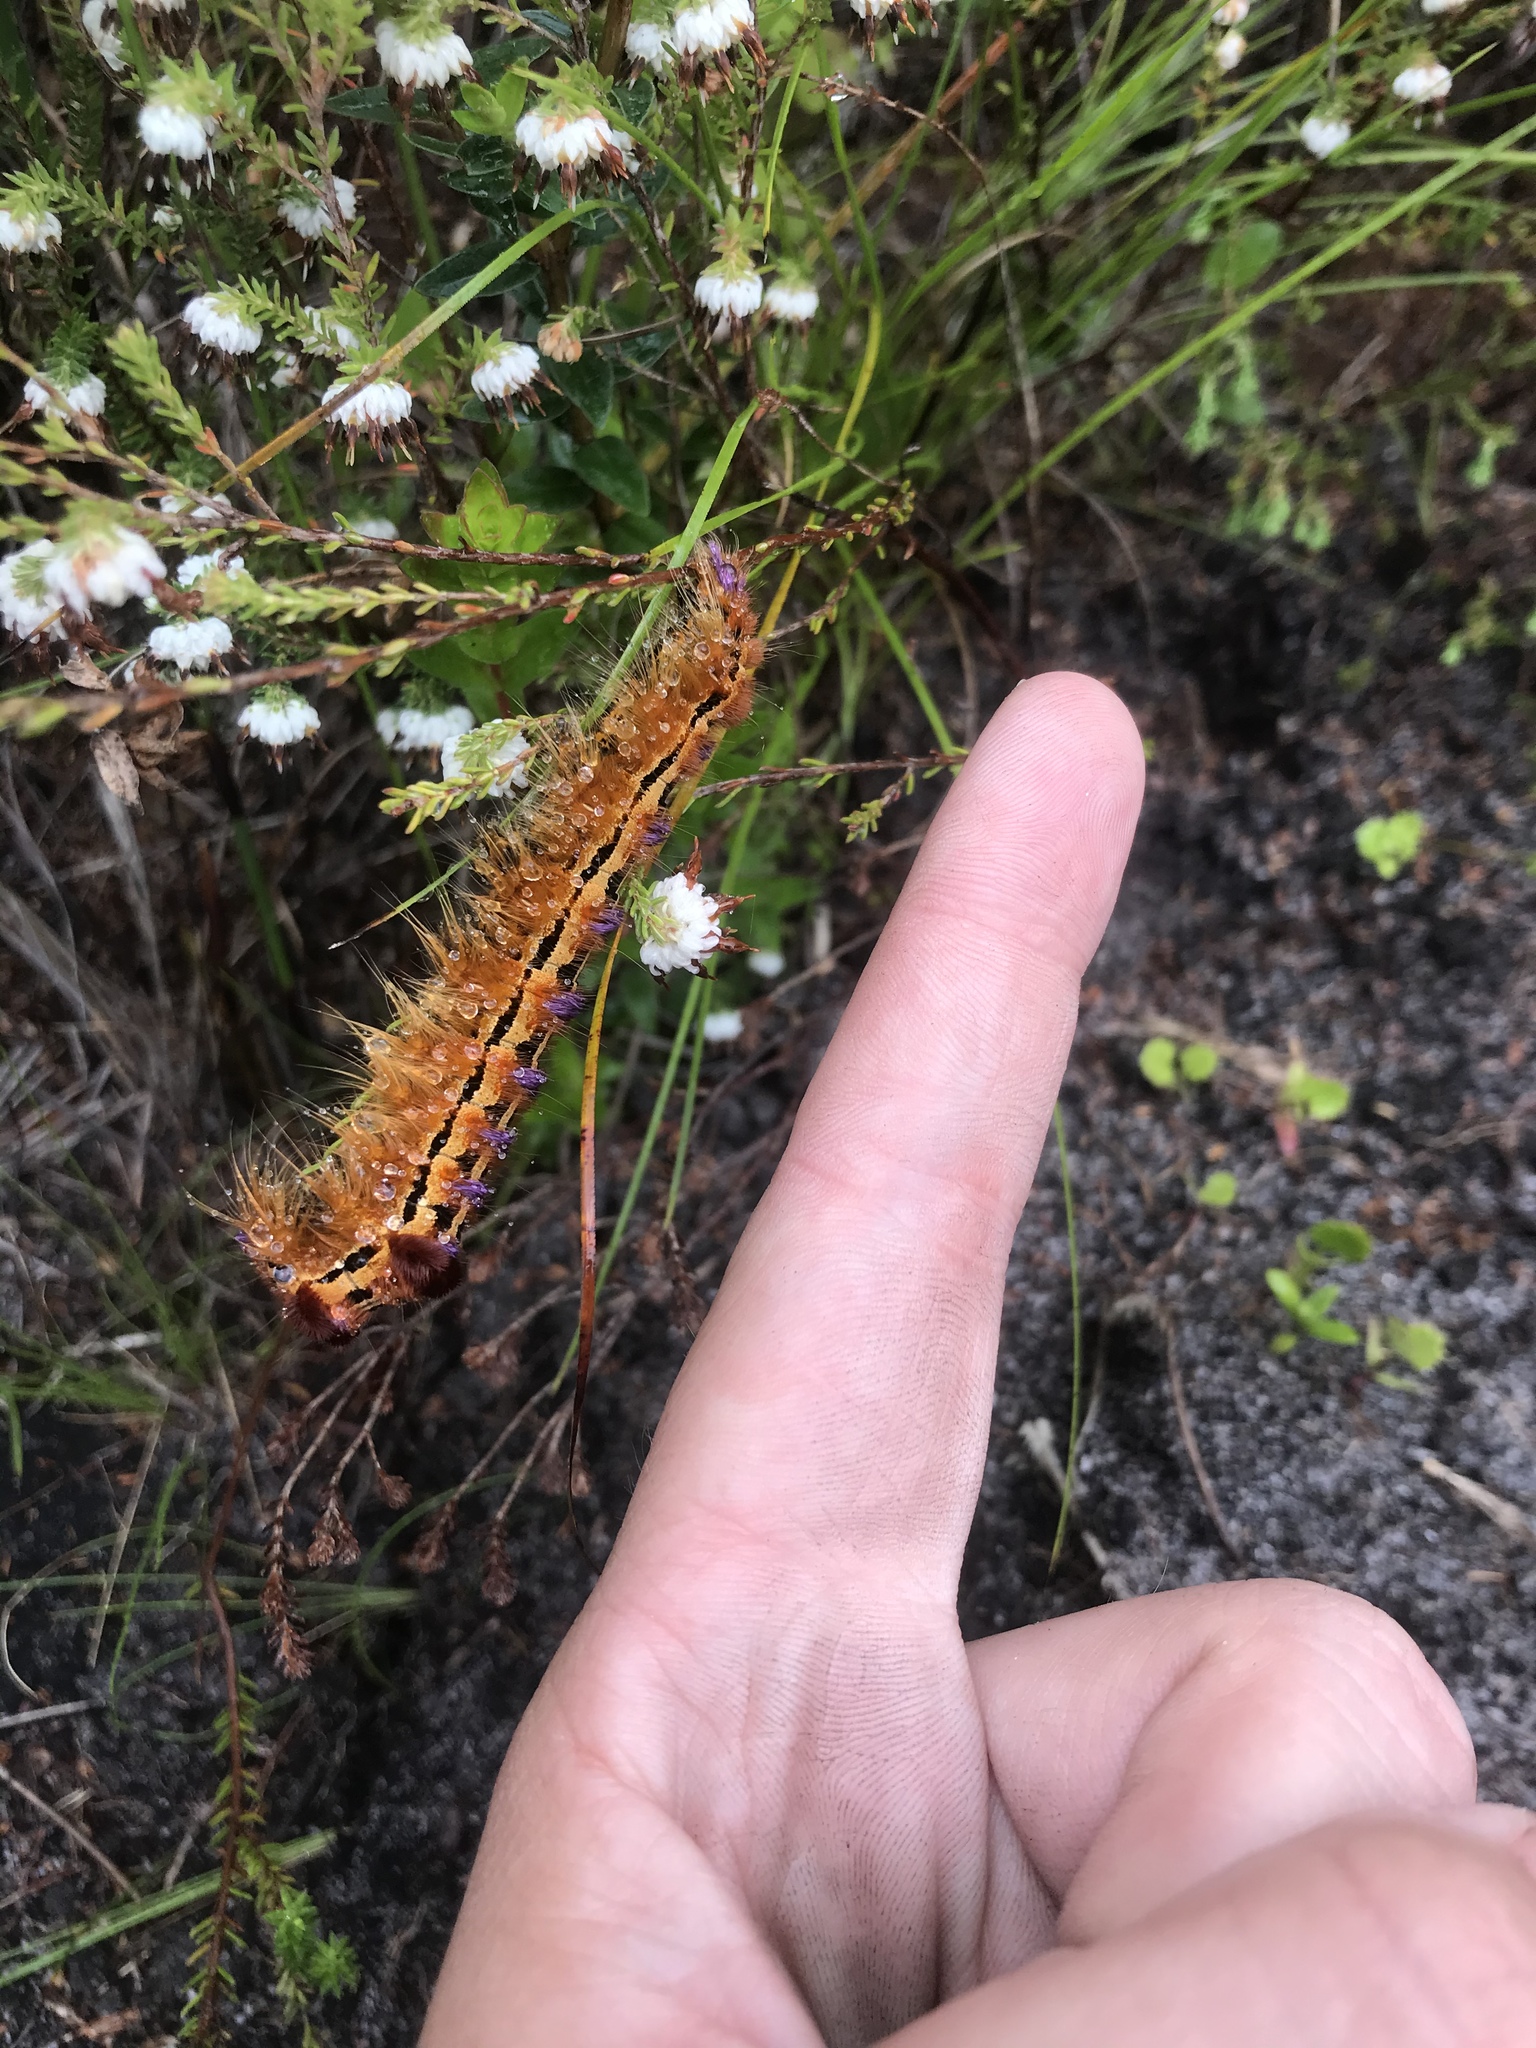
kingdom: Animalia
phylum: Arthropoda
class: Insecta
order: Lepidoptera
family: Lasiocampidae
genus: Eutricha
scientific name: Eutricha bifascia
